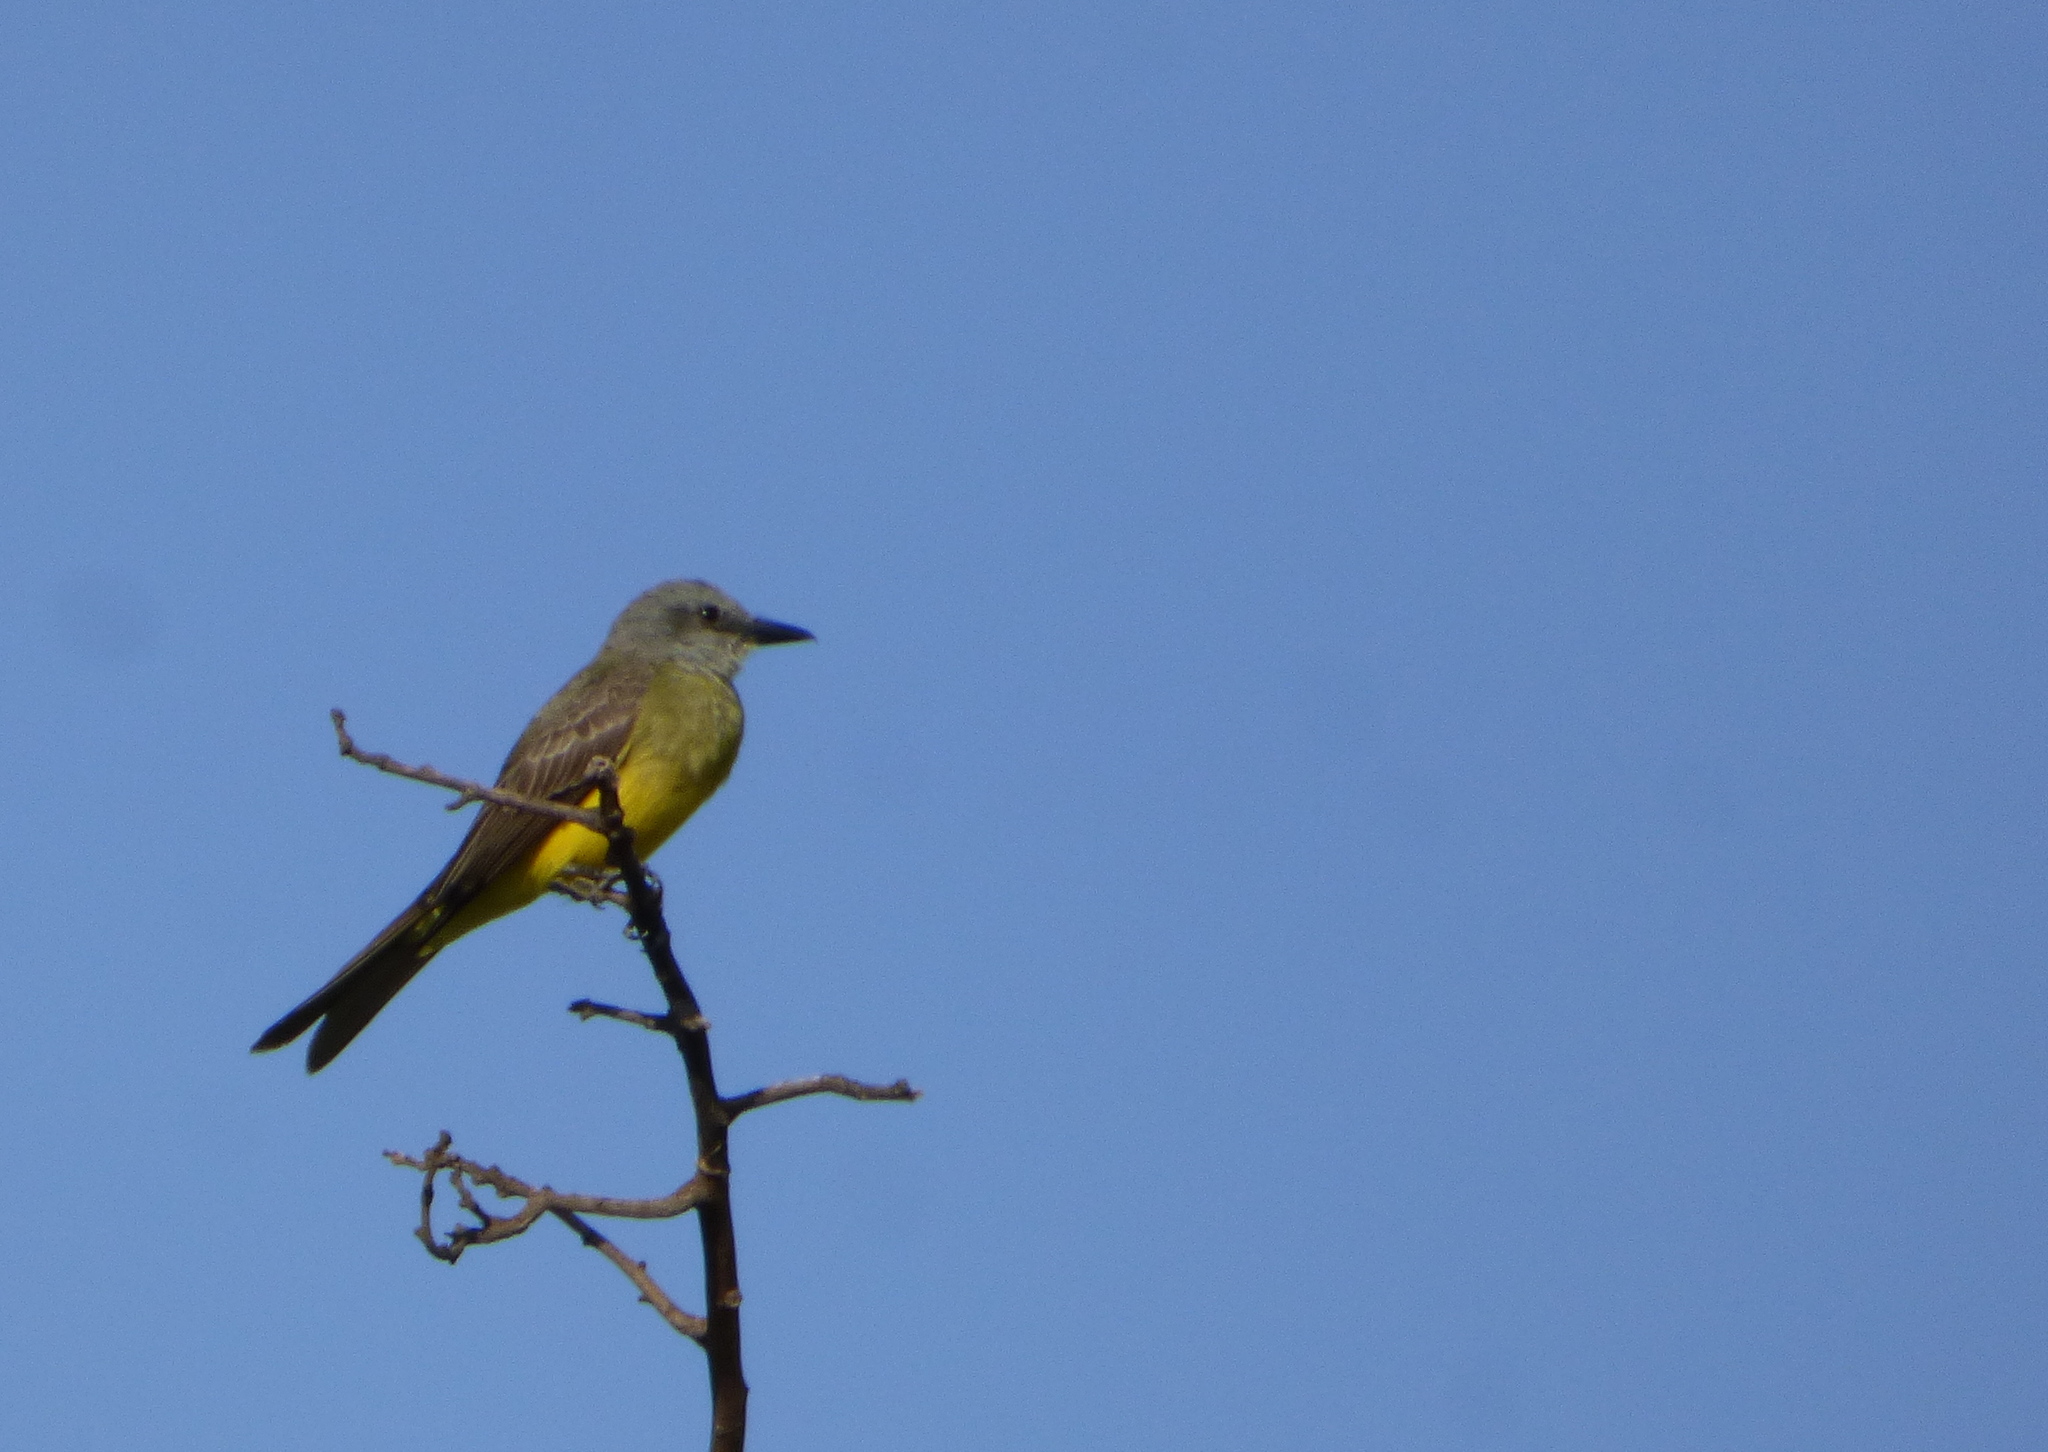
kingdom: Animalia
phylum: Chordata
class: Aves
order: Passeriformes
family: Tyrannidae
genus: Tyrannus
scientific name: Tyrannus melancholicus
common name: Tropical kingbird
